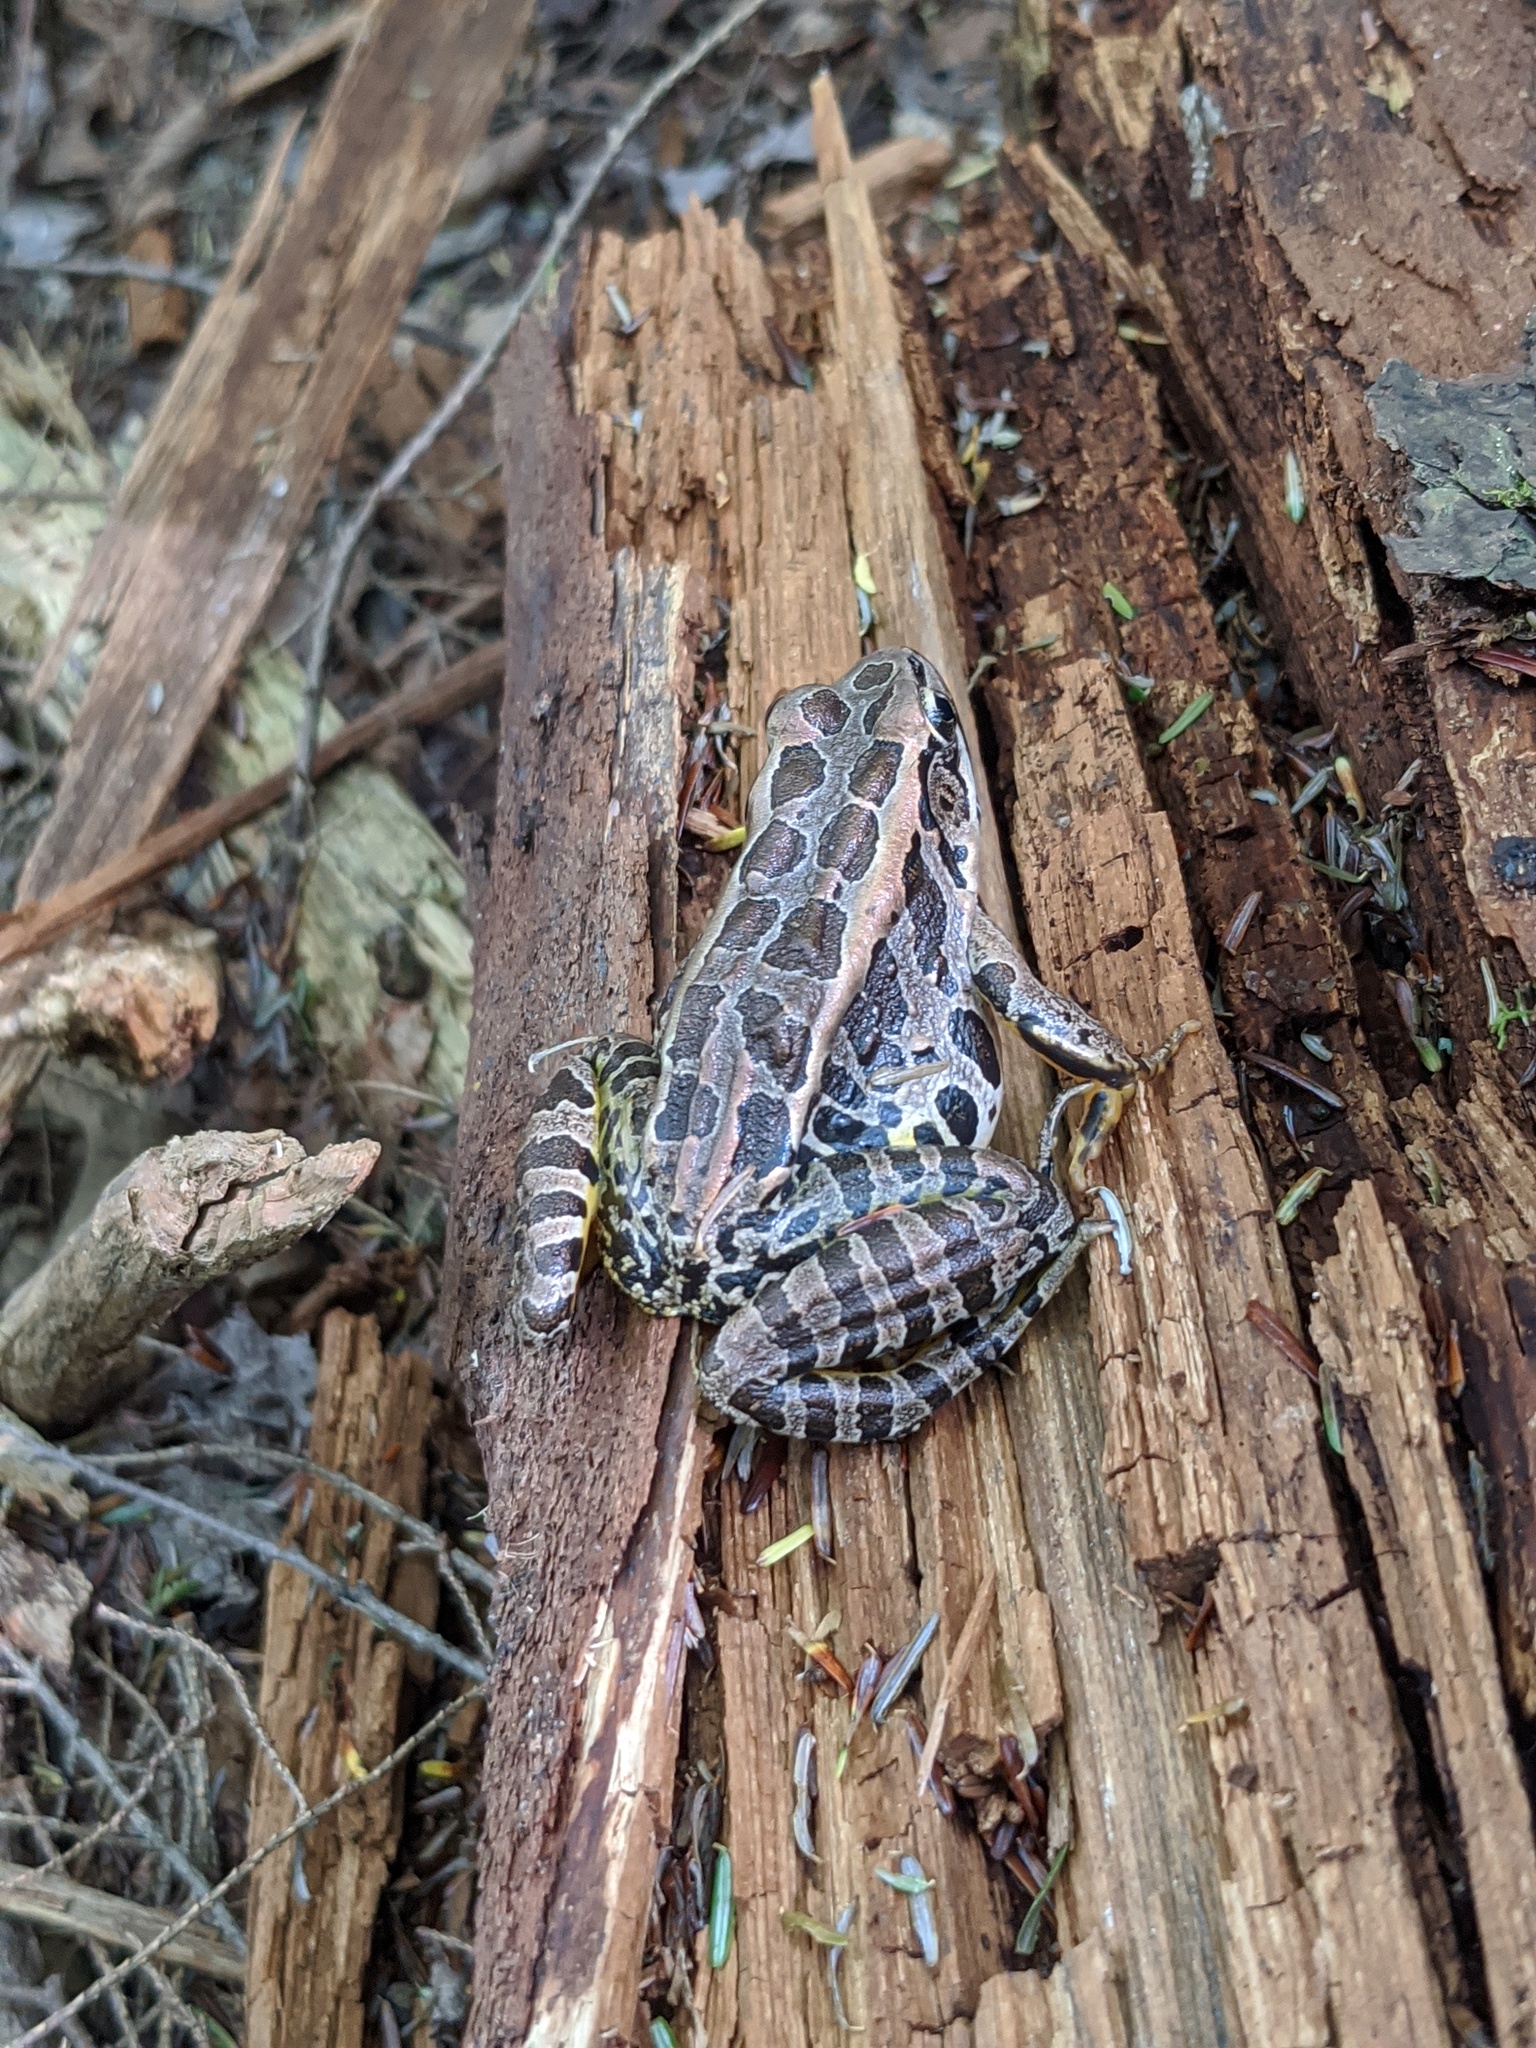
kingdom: Animalia
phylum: Chordata
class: Amphibia
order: Anura
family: Ranidae
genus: Lithobates
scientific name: Lithobates palustris
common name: Pickerel frog
